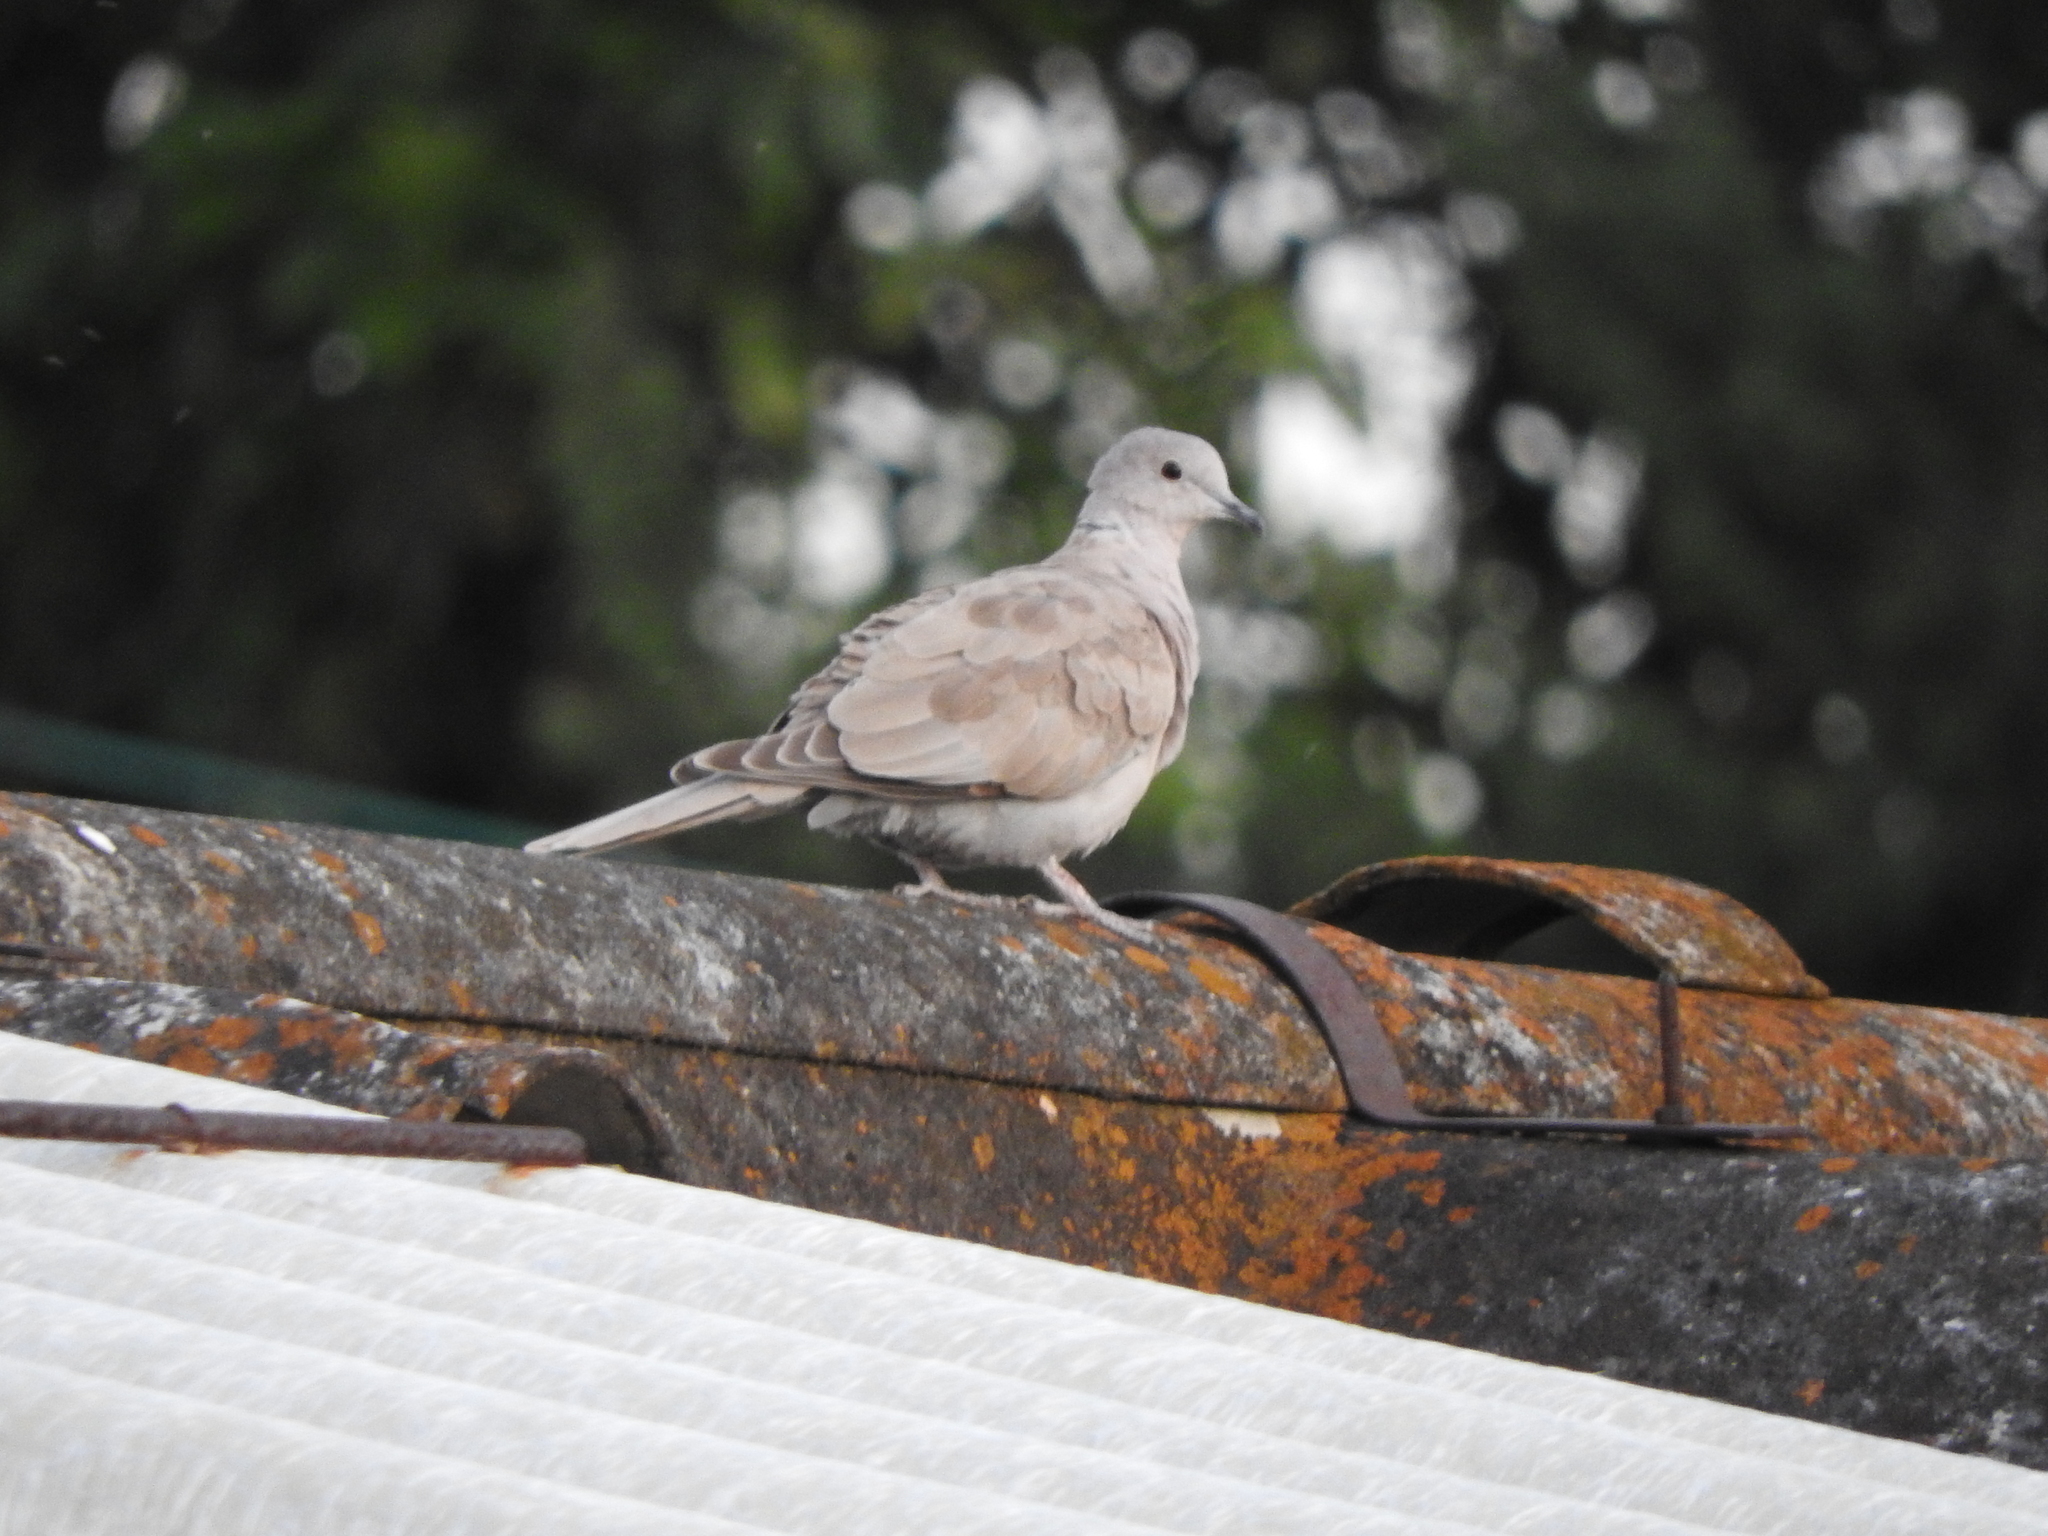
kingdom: Animalia
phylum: Chordata
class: Aves
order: Columbiformes
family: Columbidae
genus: Streptopelia
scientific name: Streptopelia decaocto
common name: Eurasian collared dove
